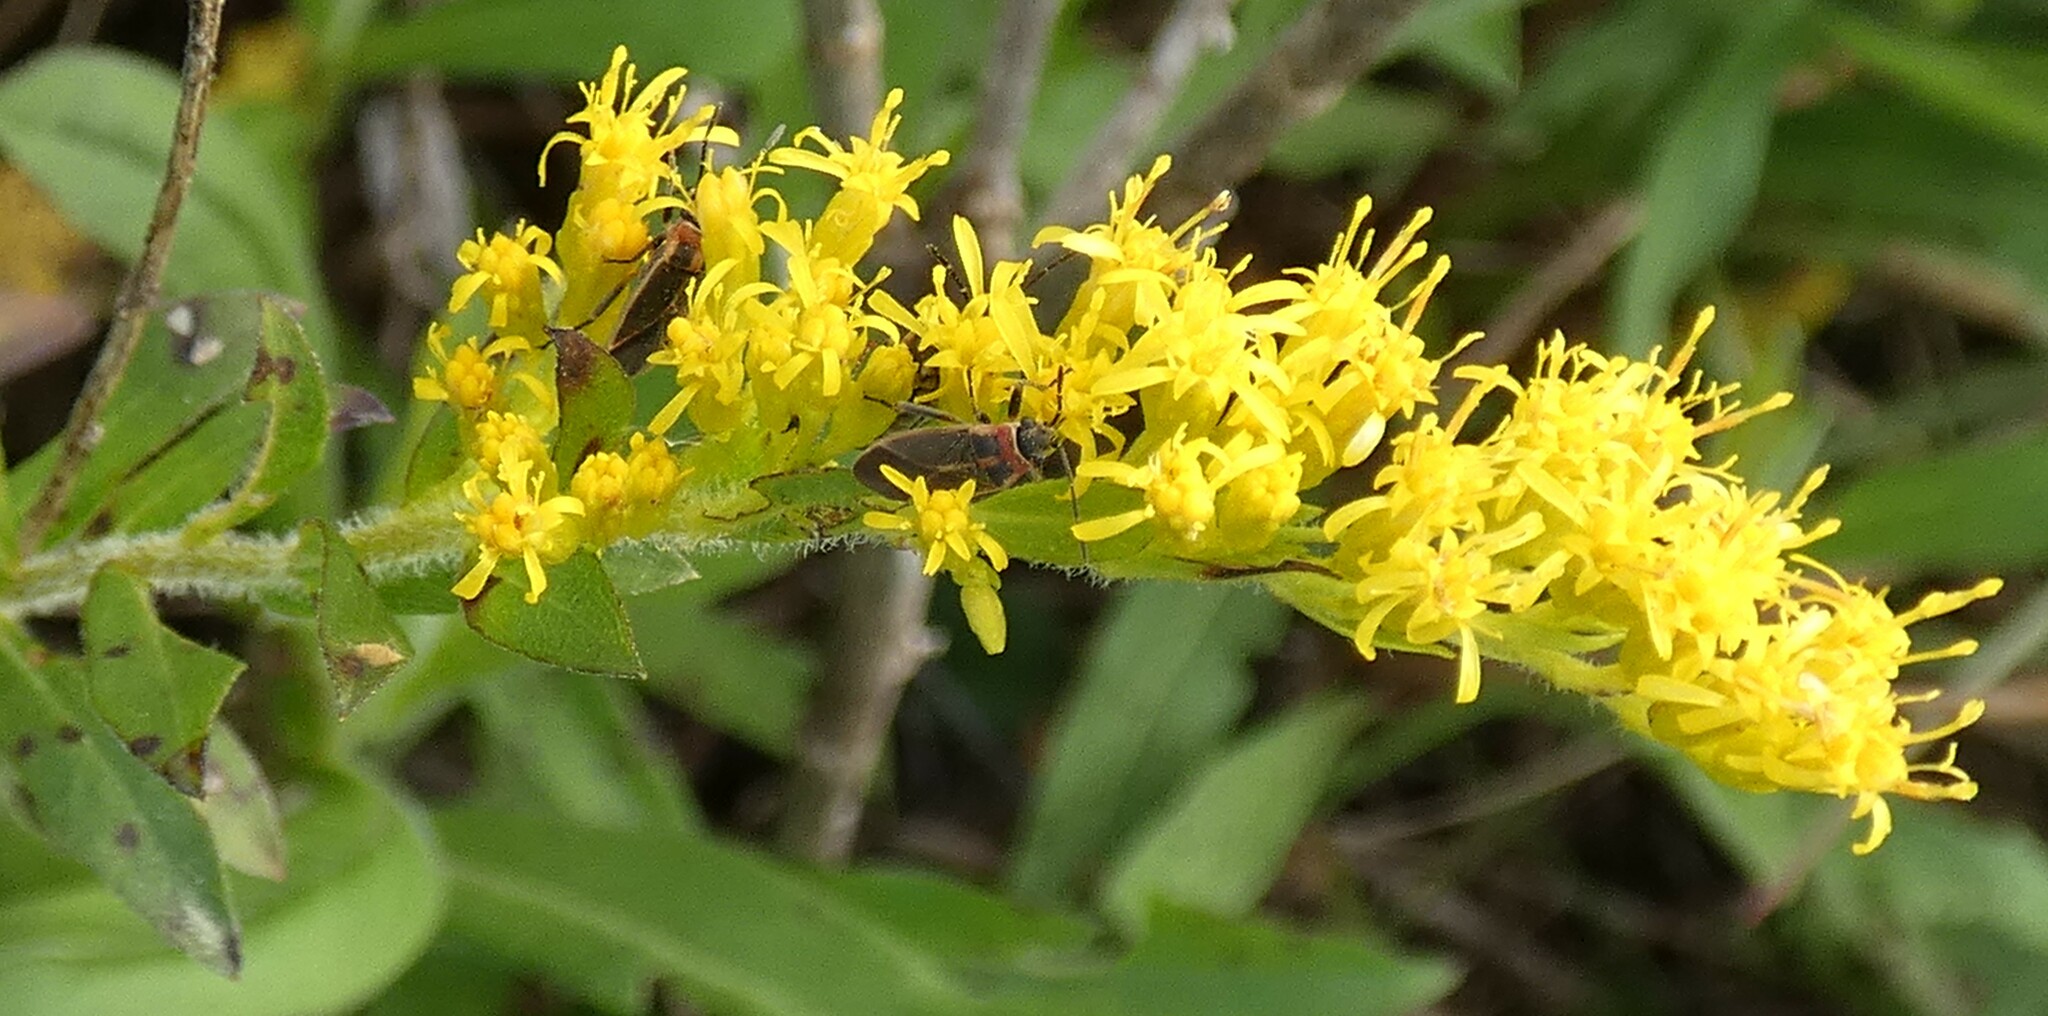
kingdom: Plantae
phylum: Tracheophyta
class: Magnoliopsida
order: Asterales
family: Asteraceae
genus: Solidago
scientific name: Solidago fistulosa
